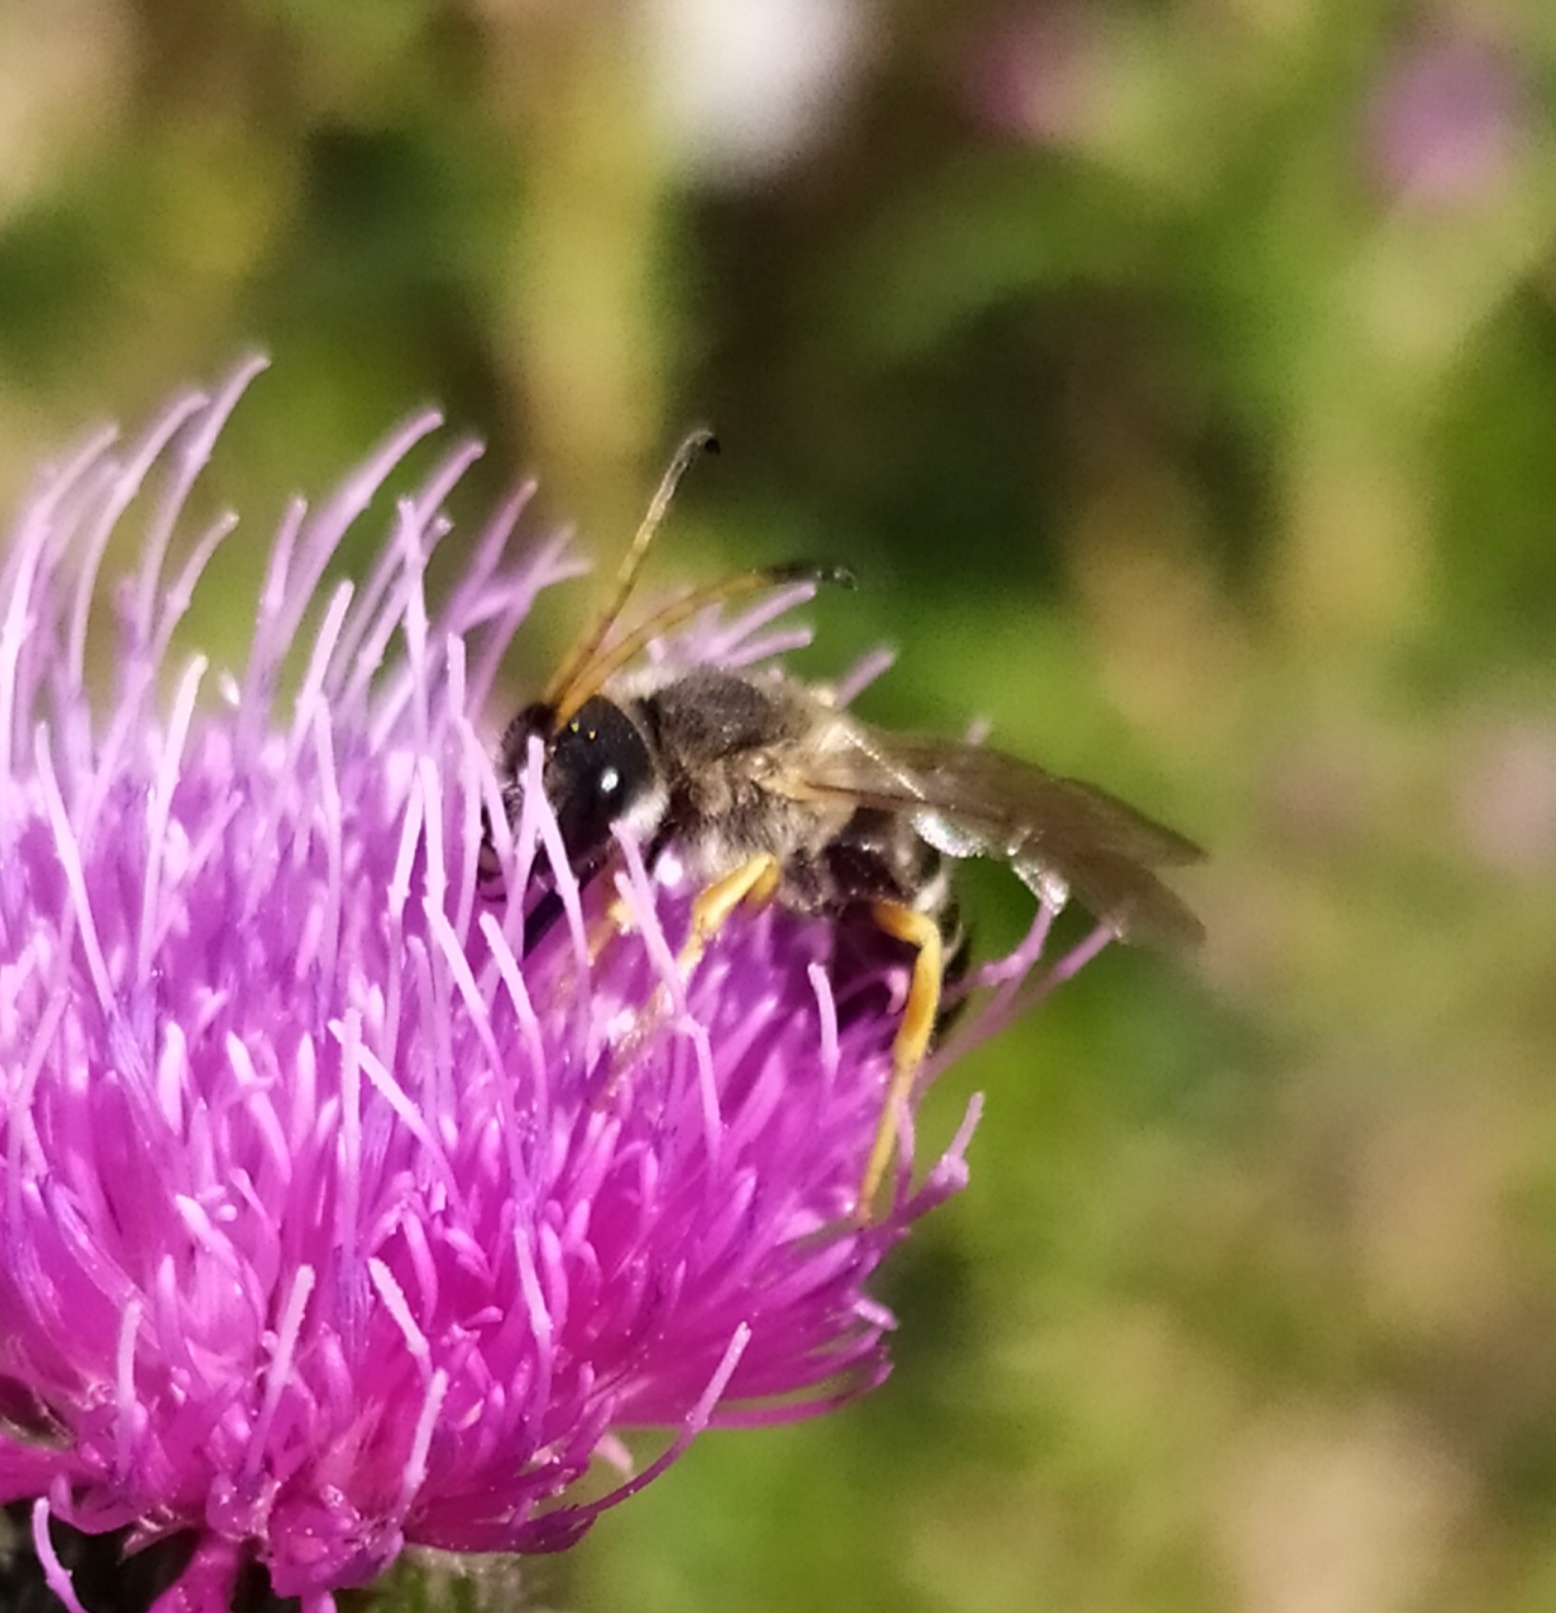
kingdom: Animalia
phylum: Arthropoda
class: Insecta
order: Hymenoptera
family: Halictidae
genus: Halictus
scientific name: Halictus sexcinctus
